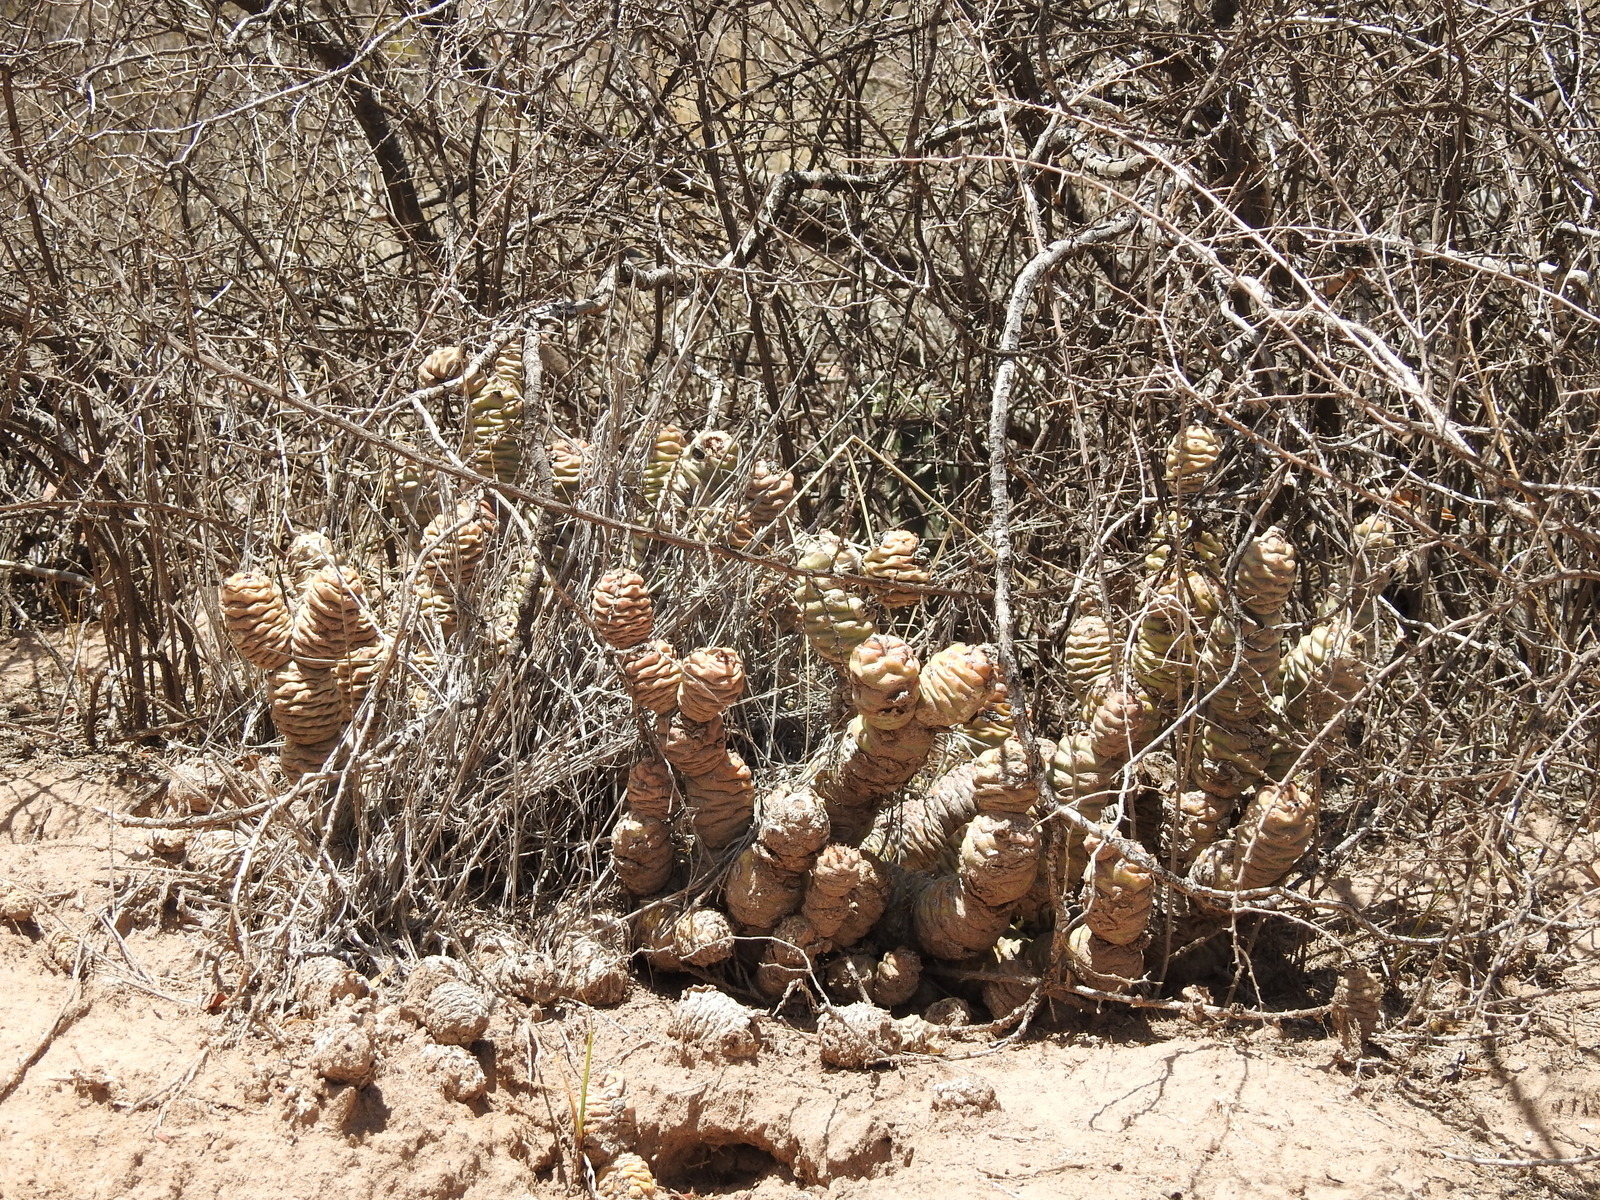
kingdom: Plantae
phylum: Tracheophyta
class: Magnoliopsida
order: Caryophyllales
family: Cactaceae
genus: Tephrocactus
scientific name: Tephrocactus articulatus
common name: Paper cactus
